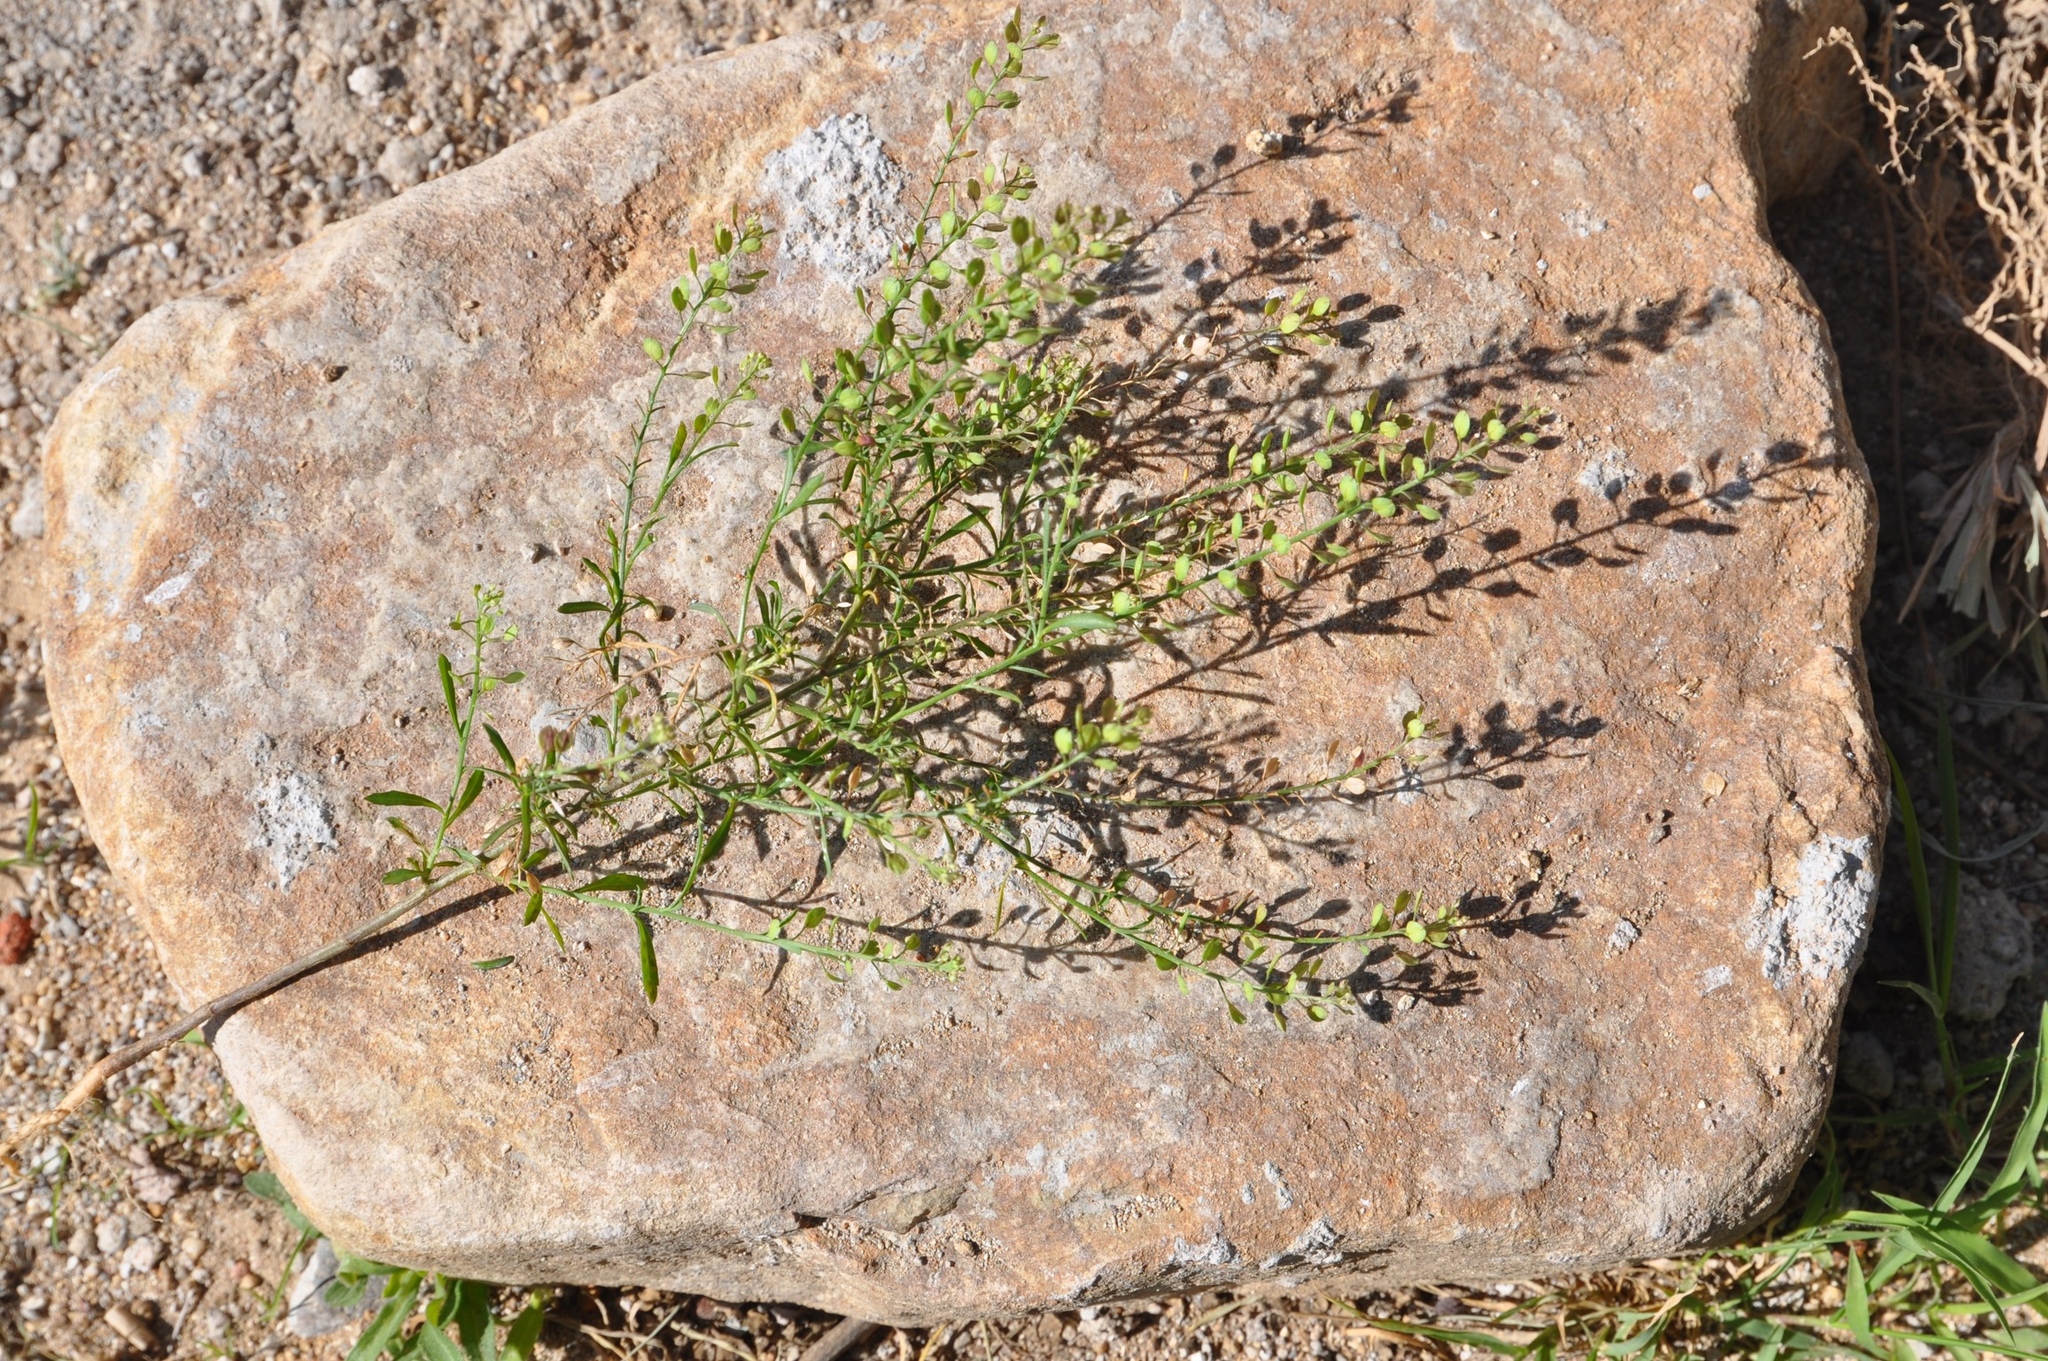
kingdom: Plantae
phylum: Tracheophyta
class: Magnoliopsida
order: Brassicales
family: Brassicaceae
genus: Lepidium
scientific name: Lepidium virginicum
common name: Least pepperwort
